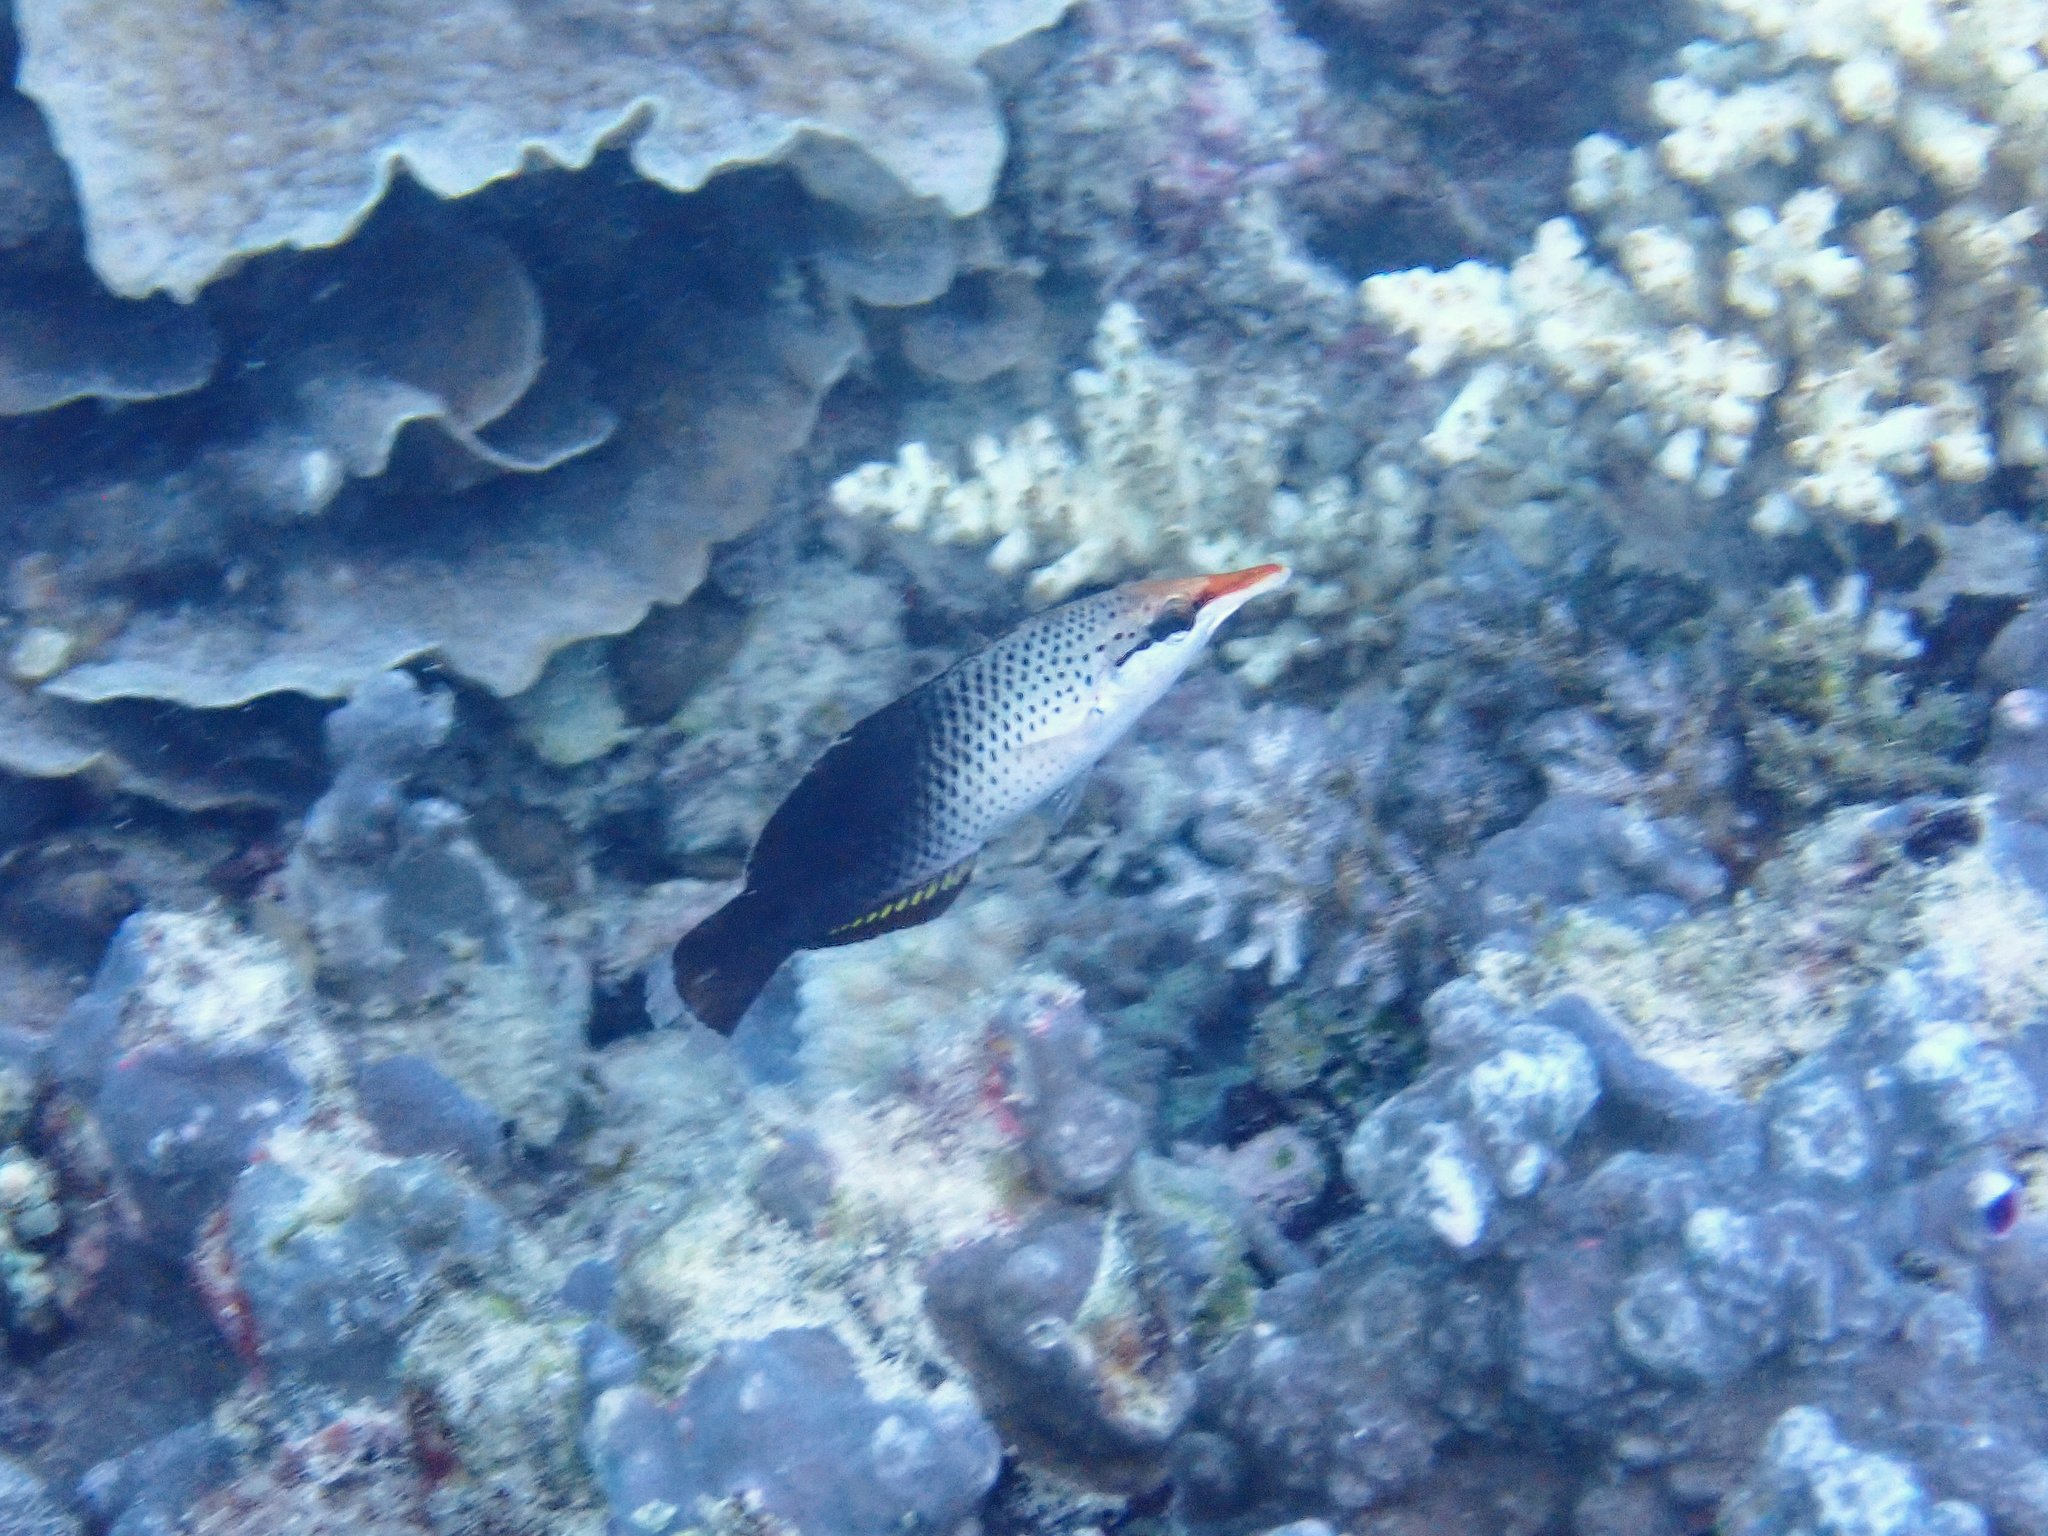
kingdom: Animalia
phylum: Chordata
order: Perciformes
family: Labridae
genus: Gomphosus
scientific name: Gomphosus varius
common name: Bird wrasse
